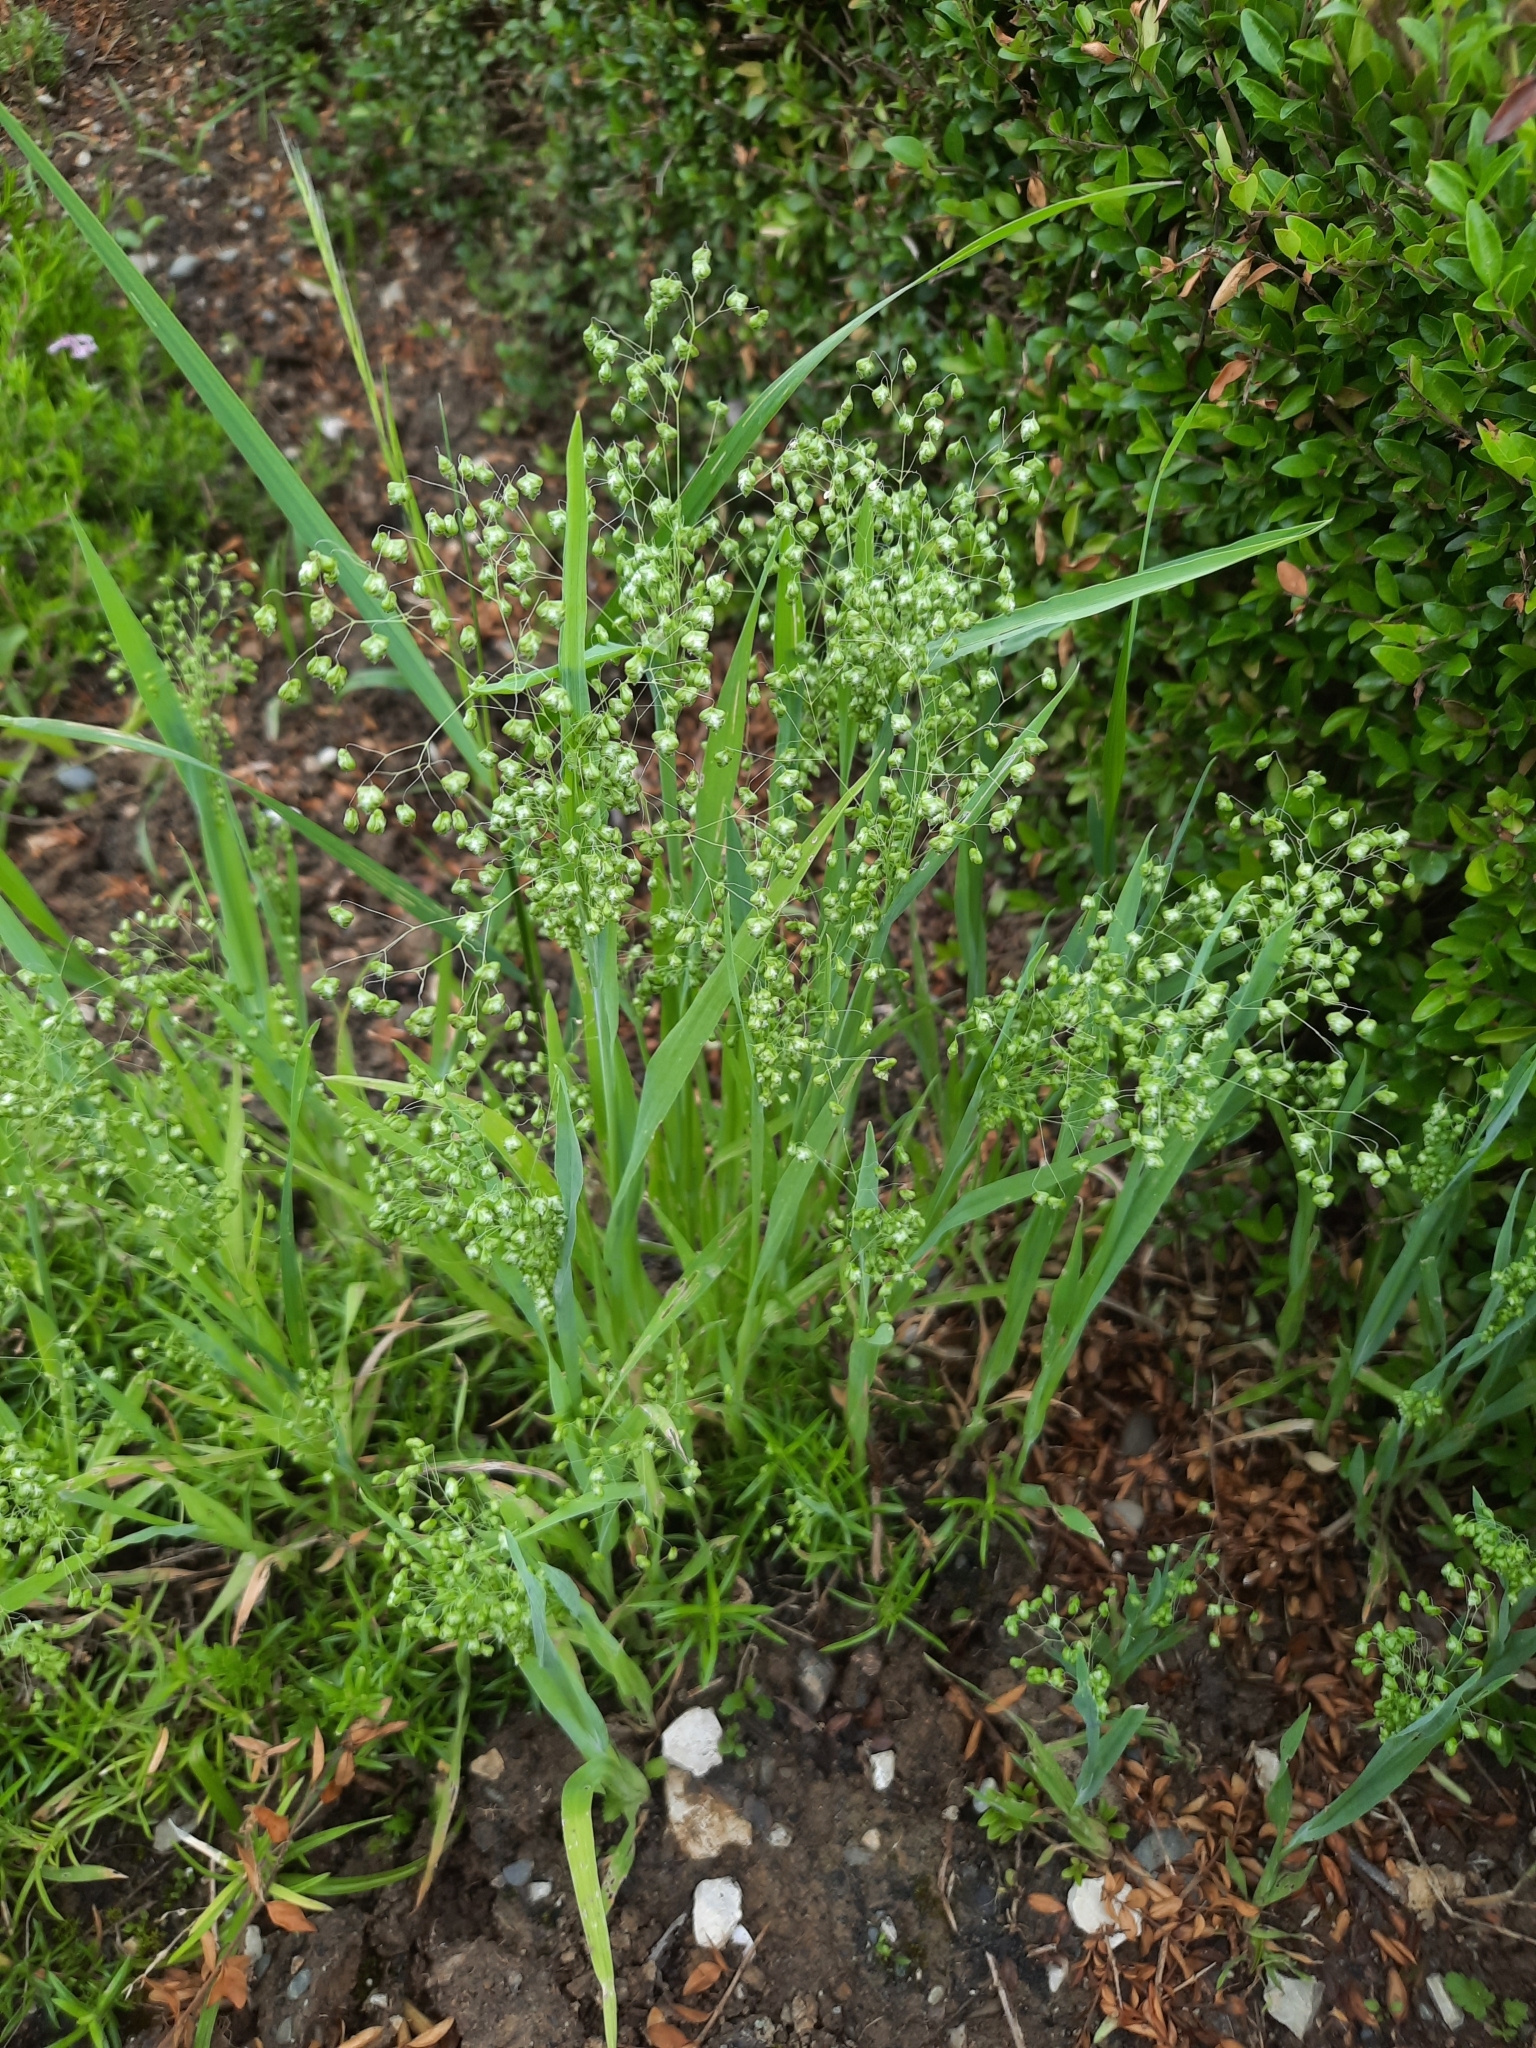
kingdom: Plantae
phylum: Tracheophyta
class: Liliopsida
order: Poales
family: Poaceae
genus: Briza
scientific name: Briza media
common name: Quaking grass
